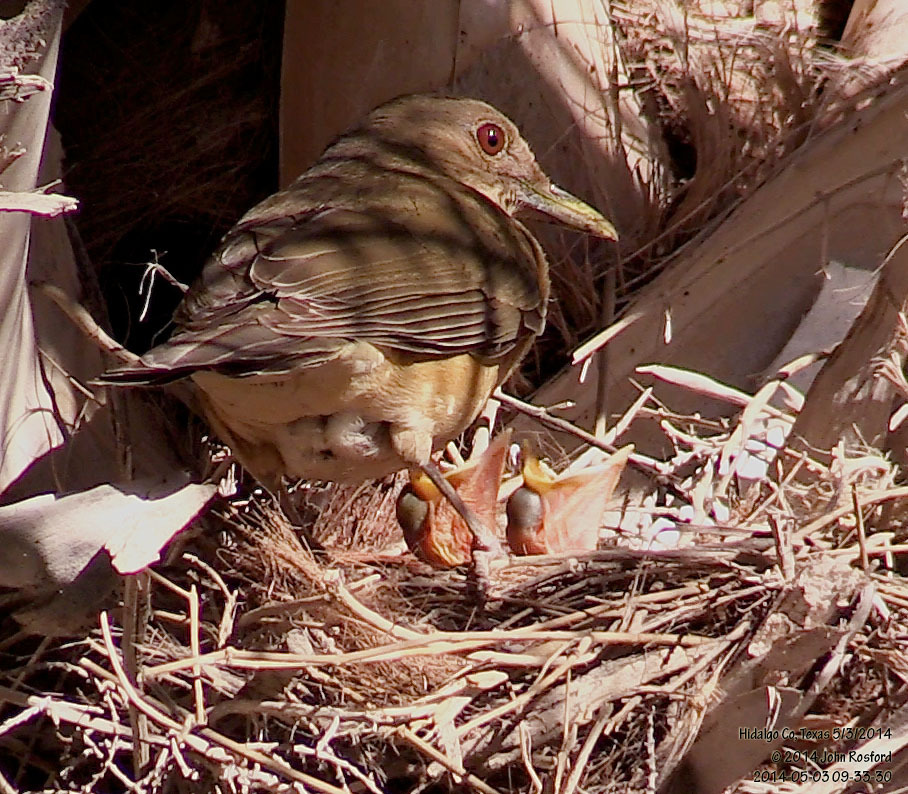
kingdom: Animalia
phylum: Chordata
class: Aves
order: Passeriformes
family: Turdidae
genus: Turdus
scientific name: Turdus grayi
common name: Clay-colored thrush
